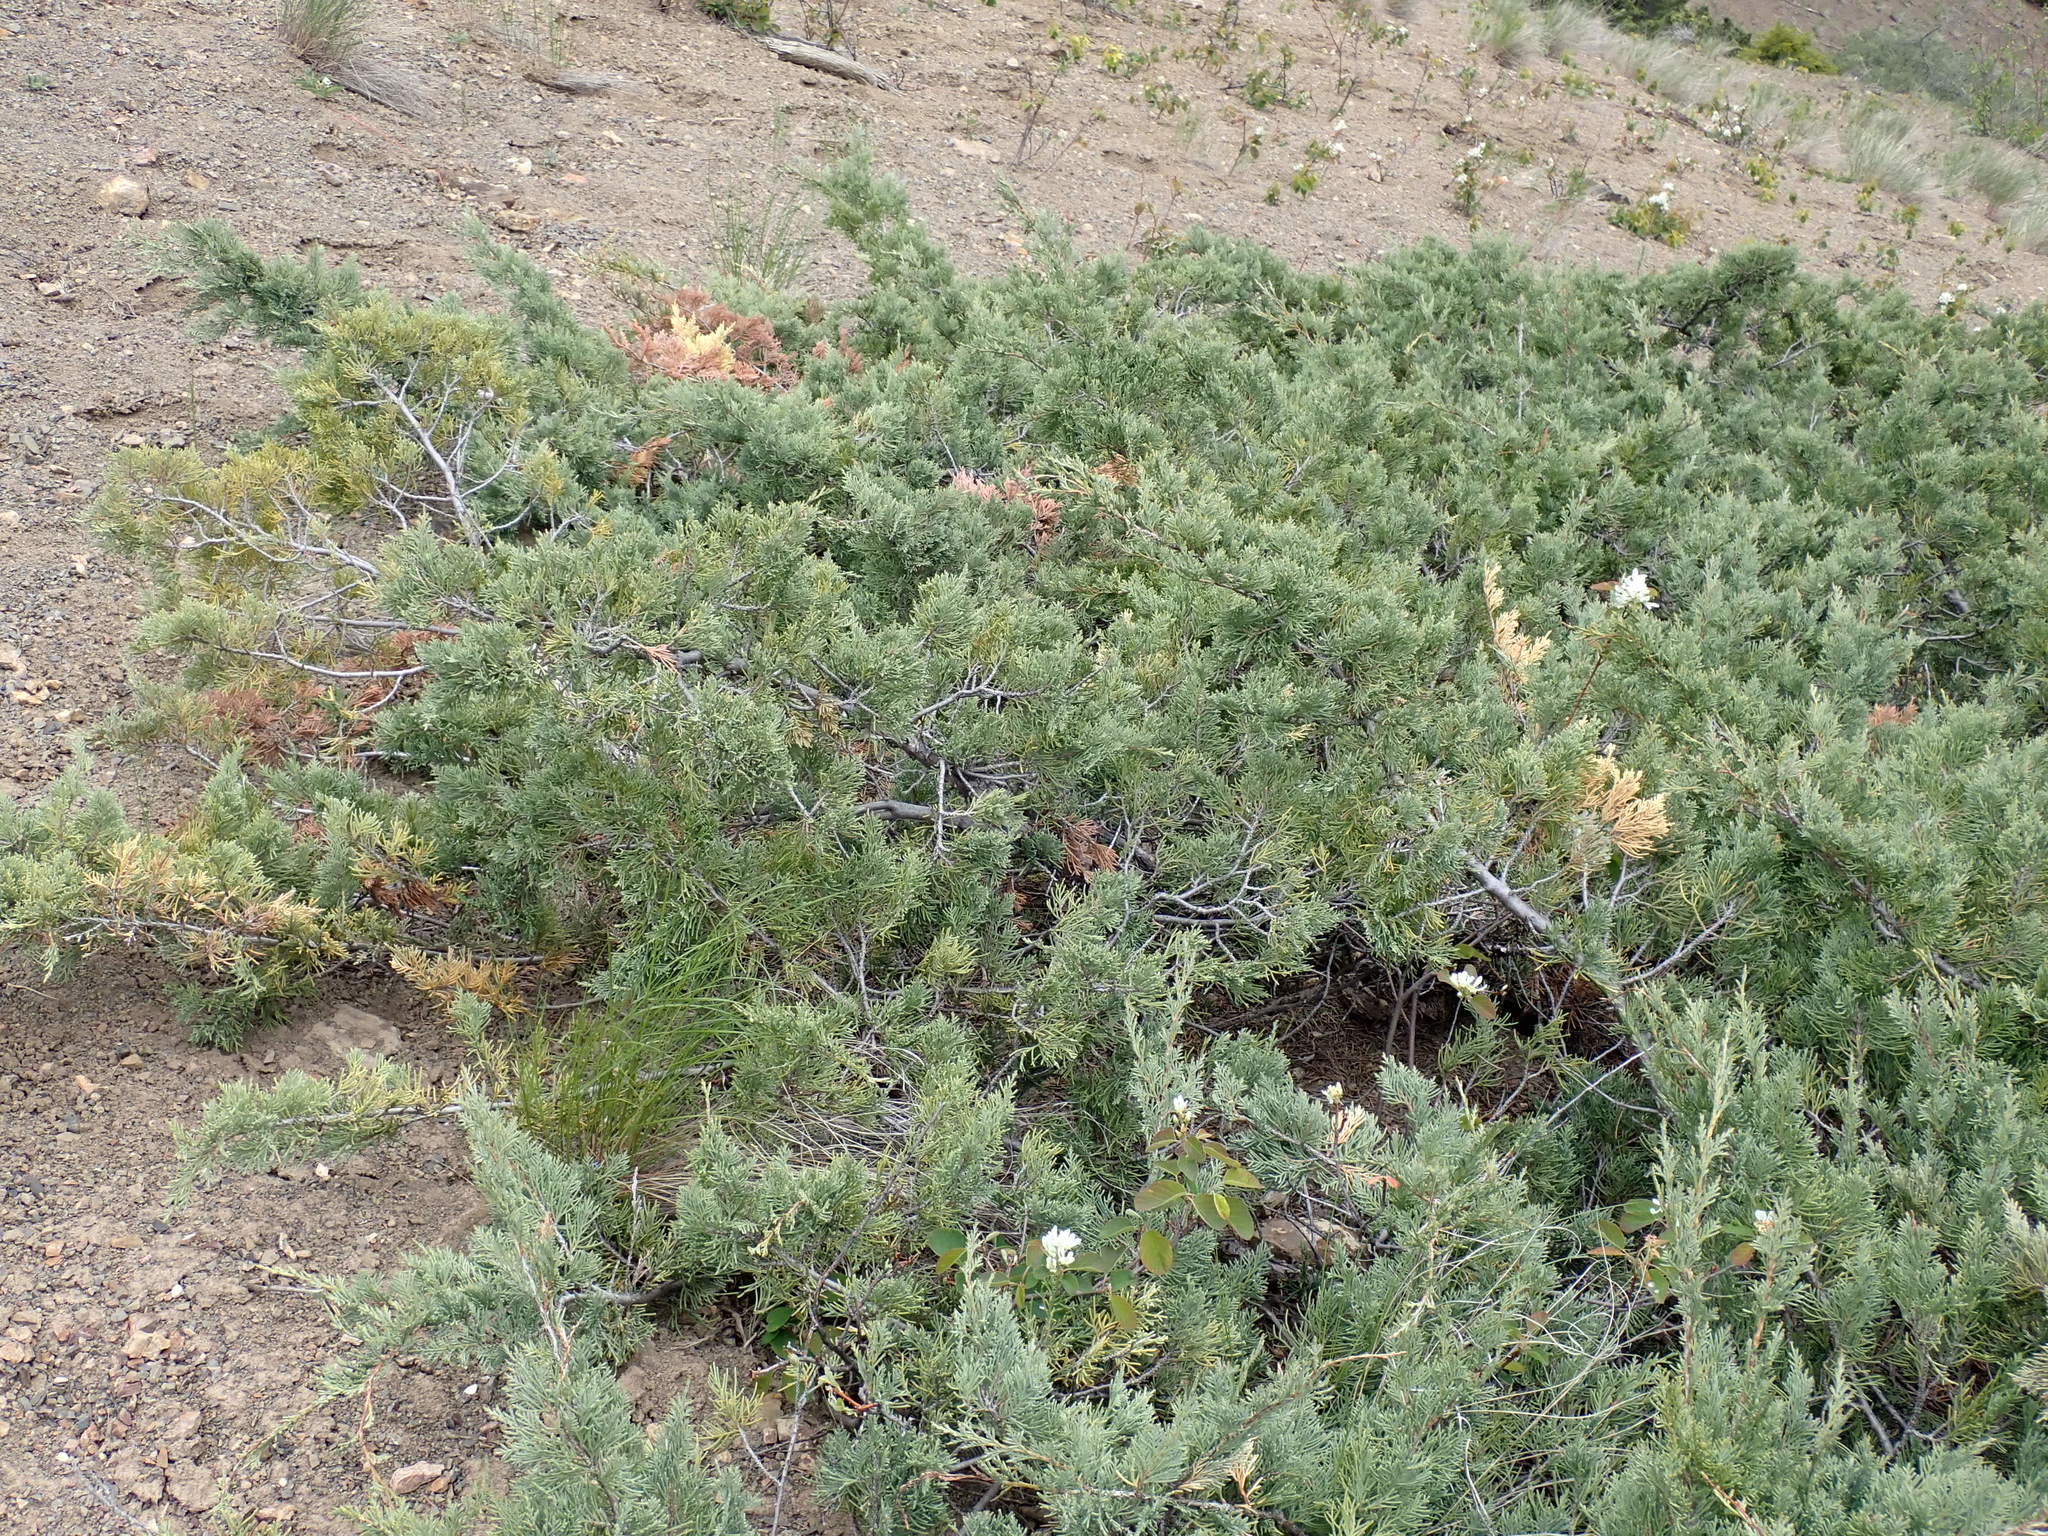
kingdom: Plantae
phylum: Tracheophyta
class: Pinopsida
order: Pinales
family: Cupressaceae
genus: Juniperus
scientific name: Juniperus scopulorum
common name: Rocky mountain juniper
